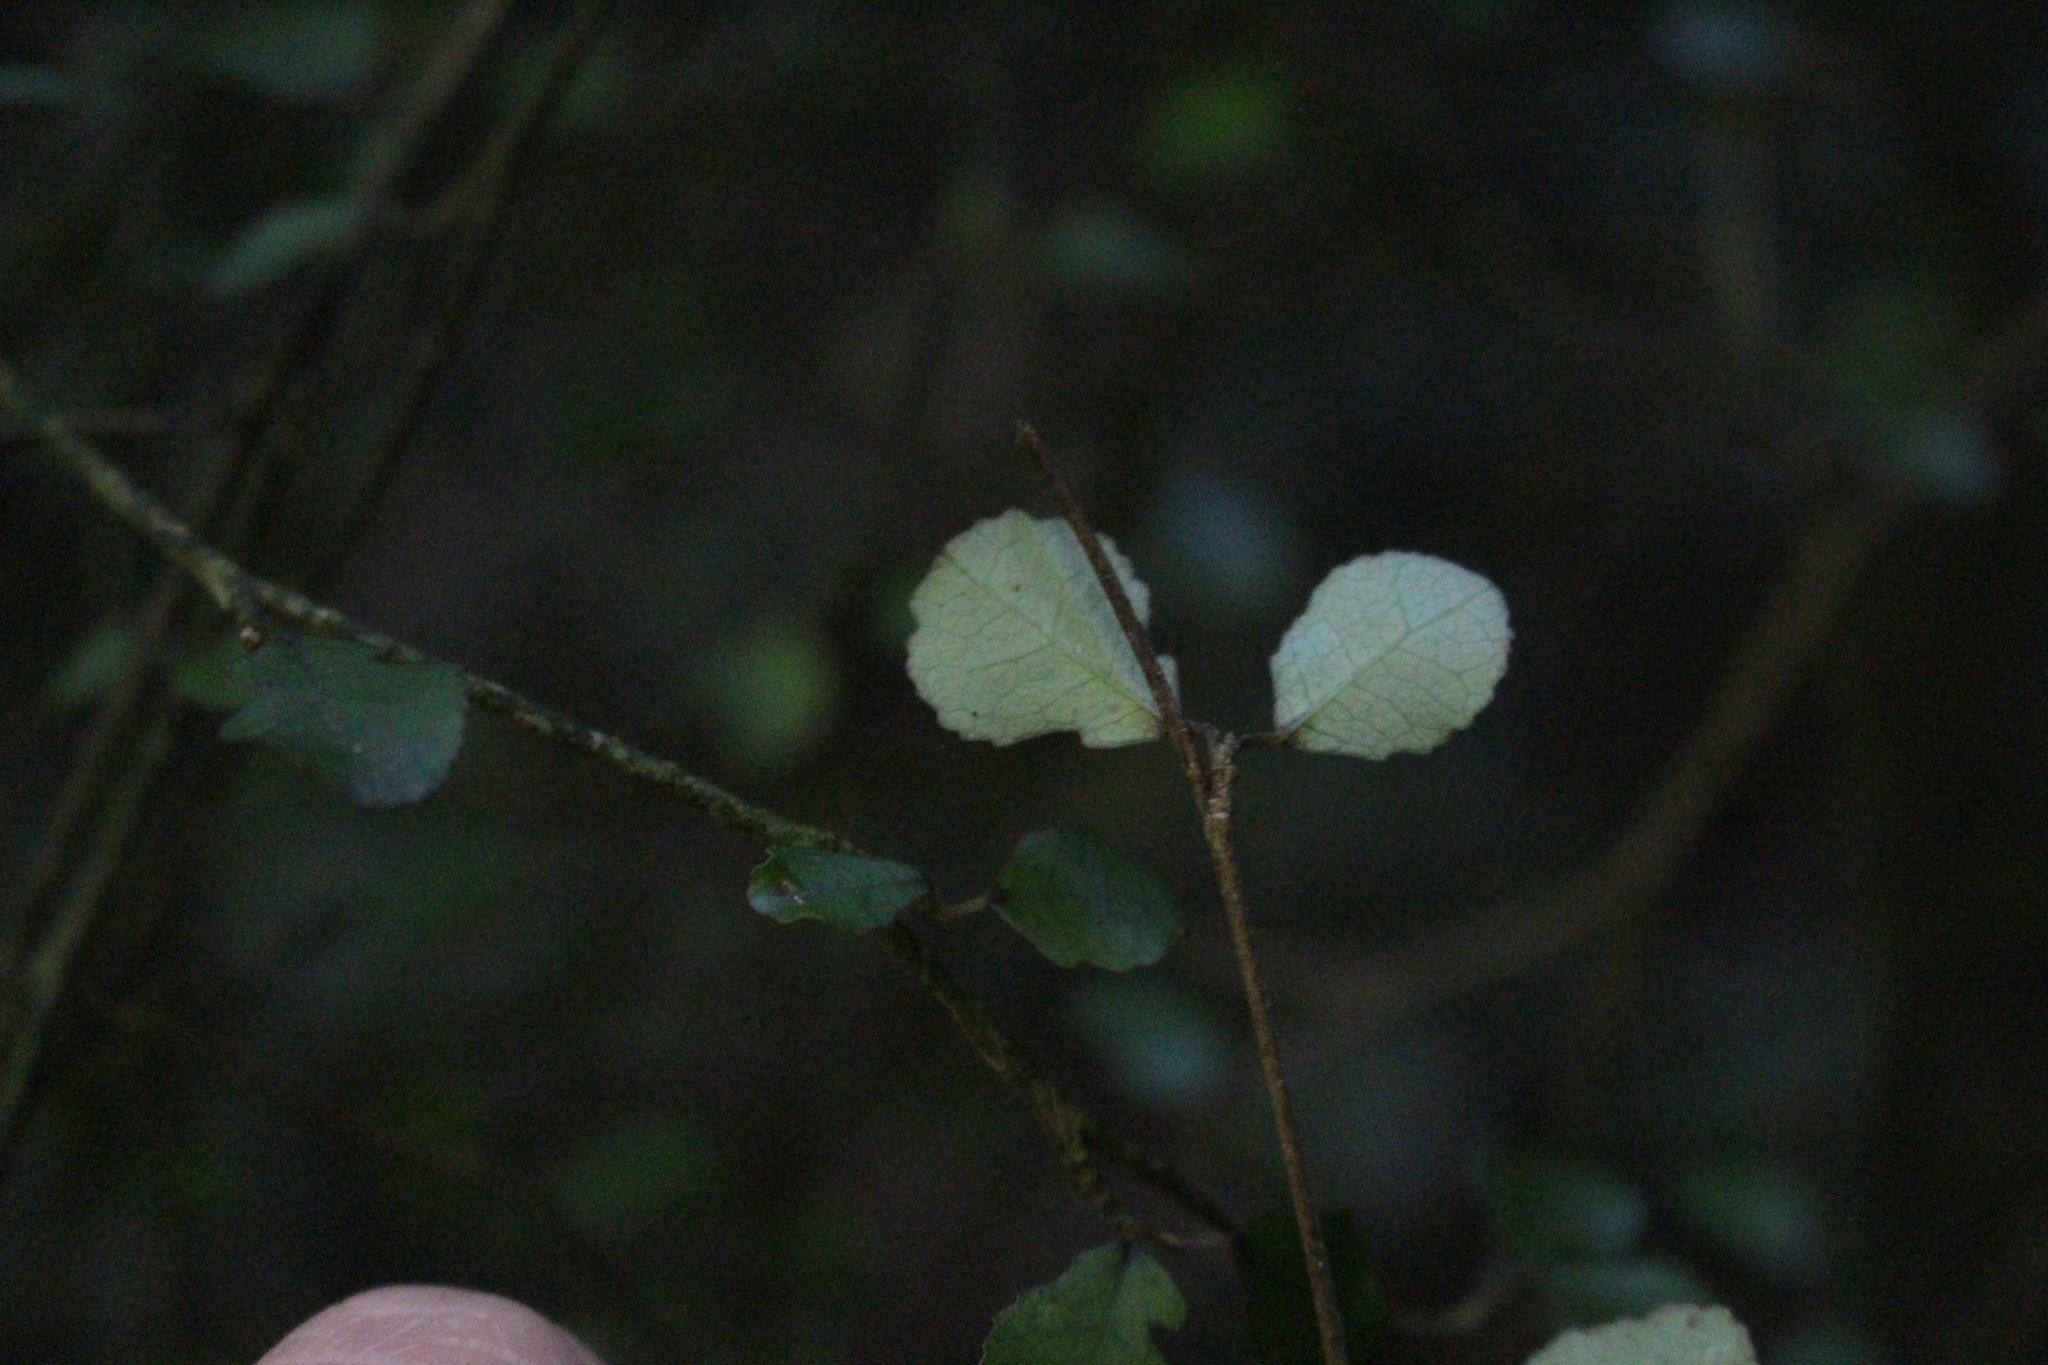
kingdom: Plantae
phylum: Tracheophyta
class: Magnoliopsida
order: Rosales
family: Moraceae
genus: Paratrophis
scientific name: Paratrophis microphylla
